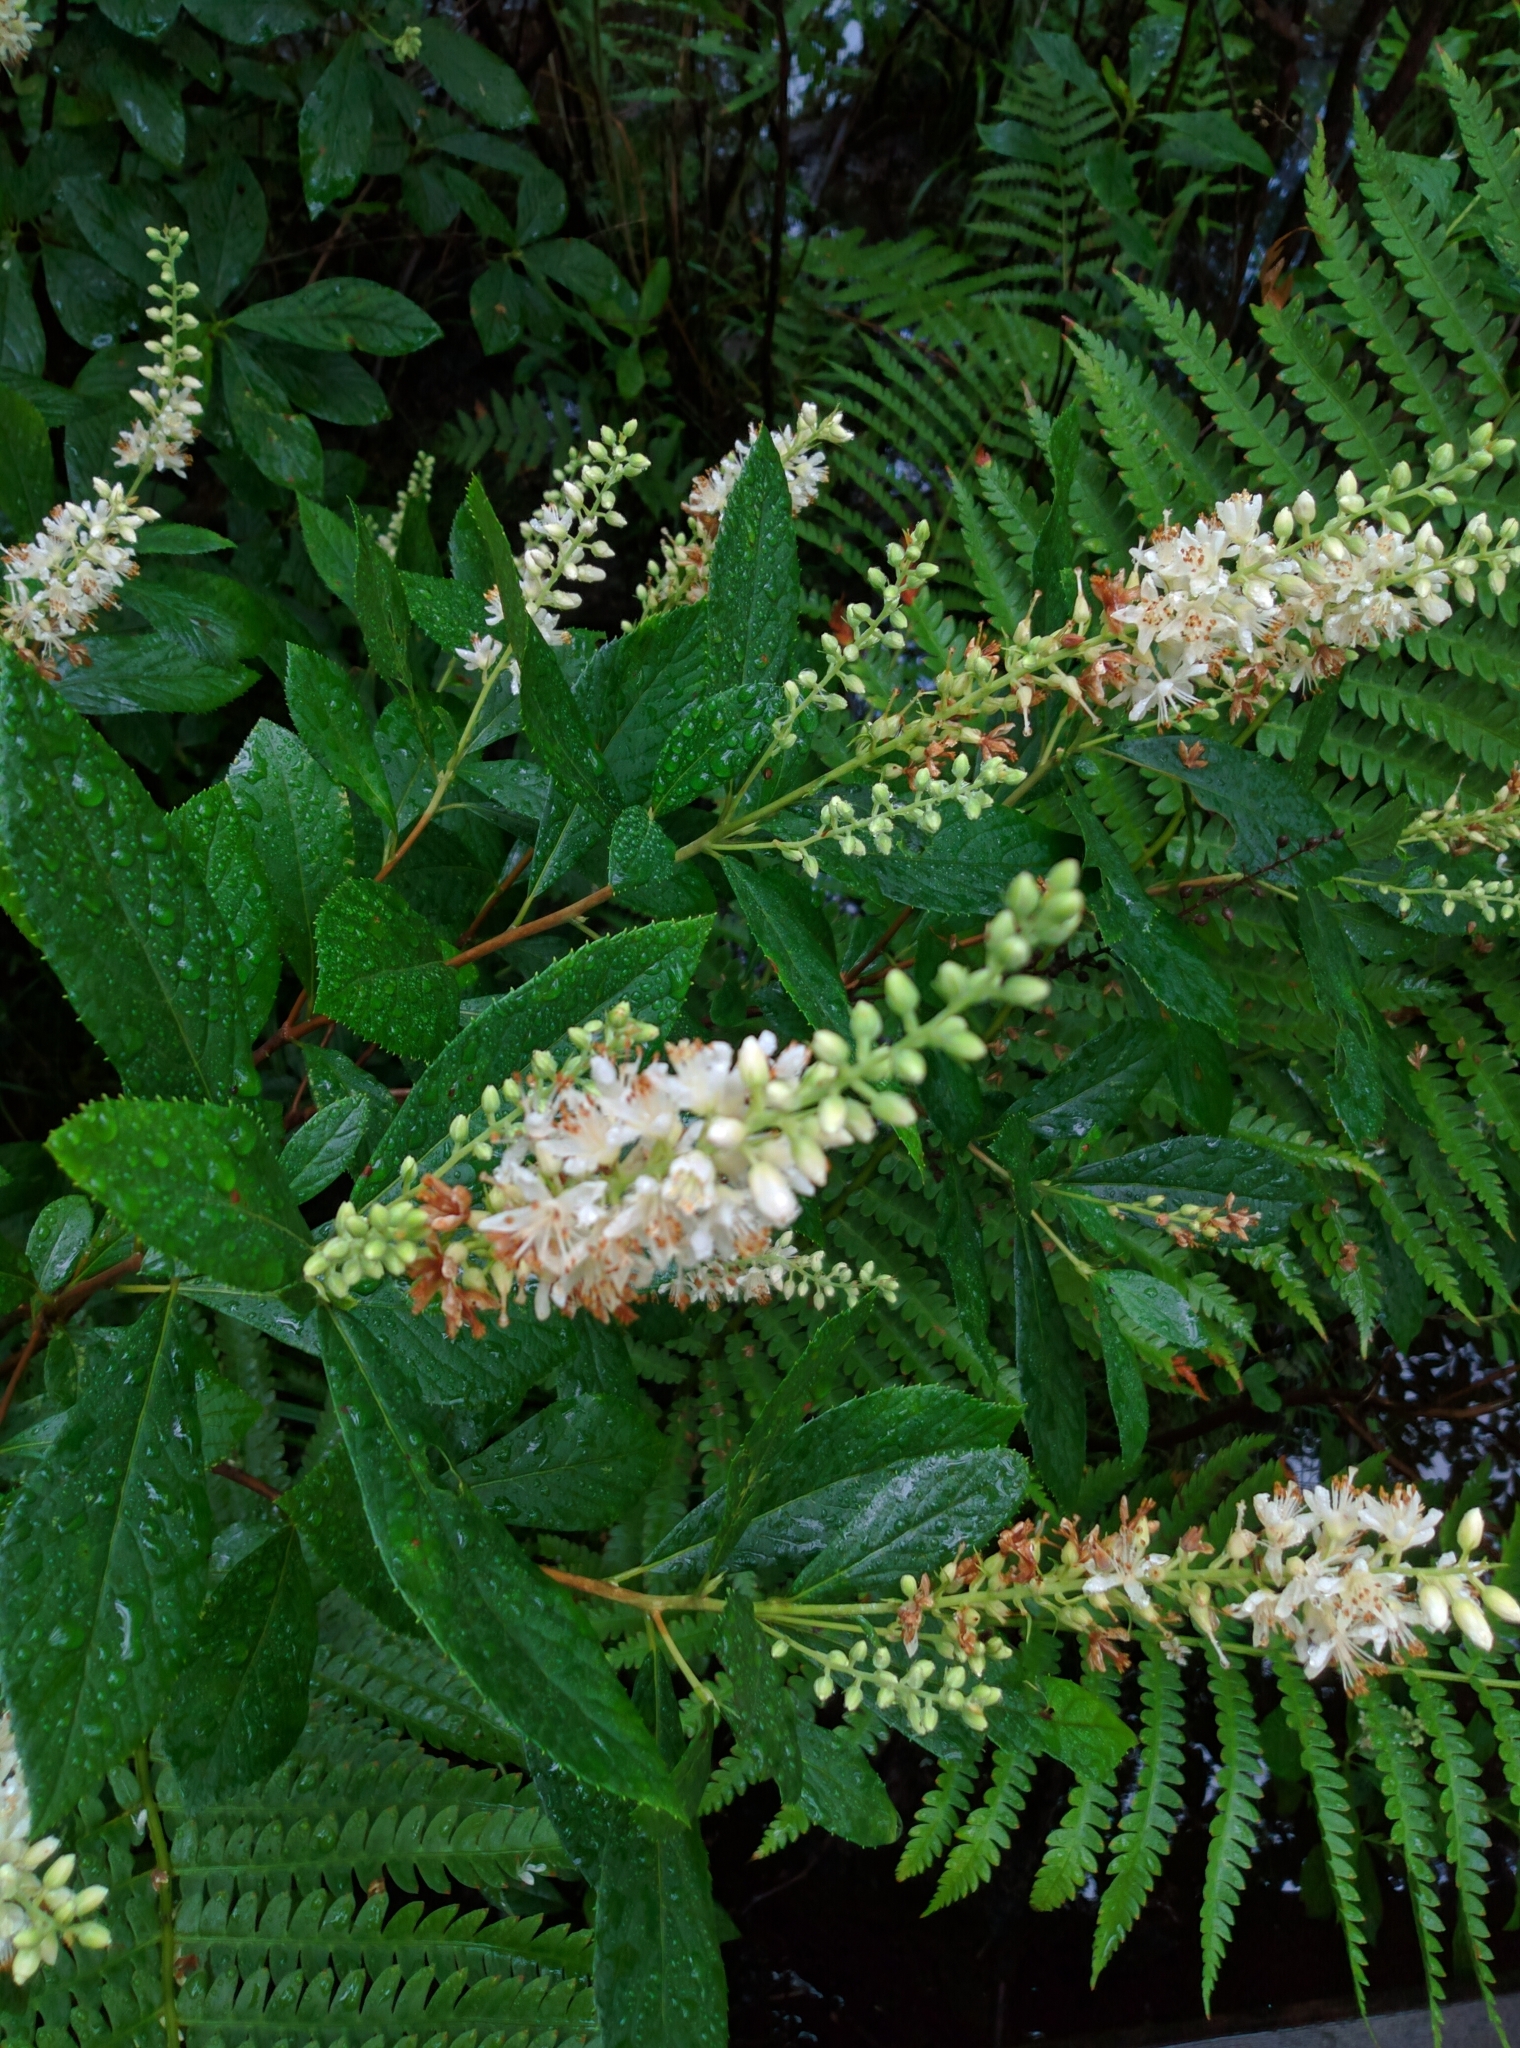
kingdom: Plantae
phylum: Tracheophyta
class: Magnoliopsida
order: Ericales
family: Clethraceae
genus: Clethra
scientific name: Clethra alnifolia
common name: Sweet pepperbush
